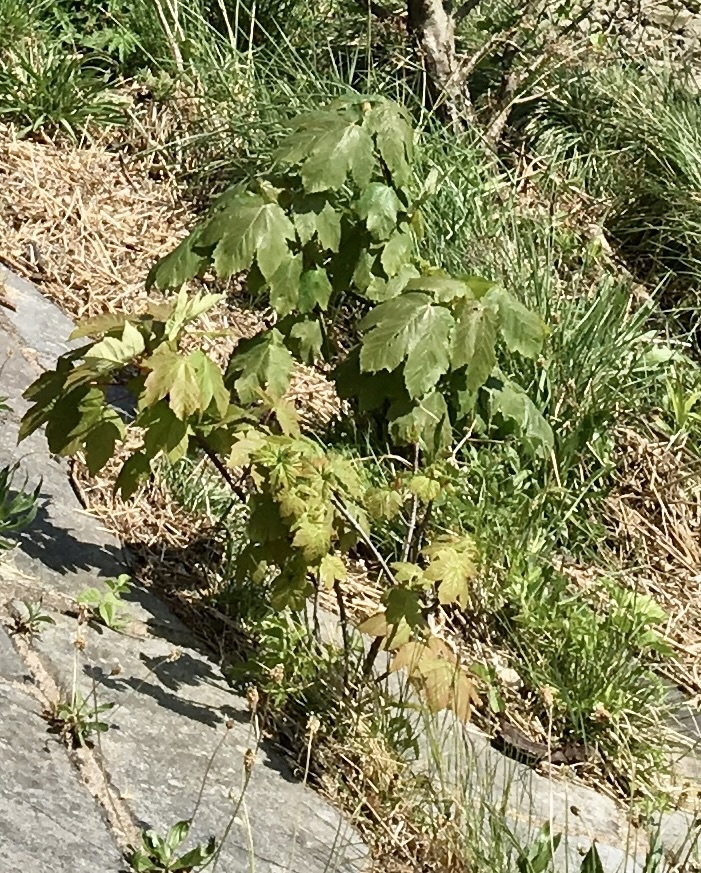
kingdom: Plantae
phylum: Tracheophyta
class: Magnoliopsida
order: Sapindales
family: Sapindaceae
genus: Acer
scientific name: Acer pseudoplatanus
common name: Sycamore
